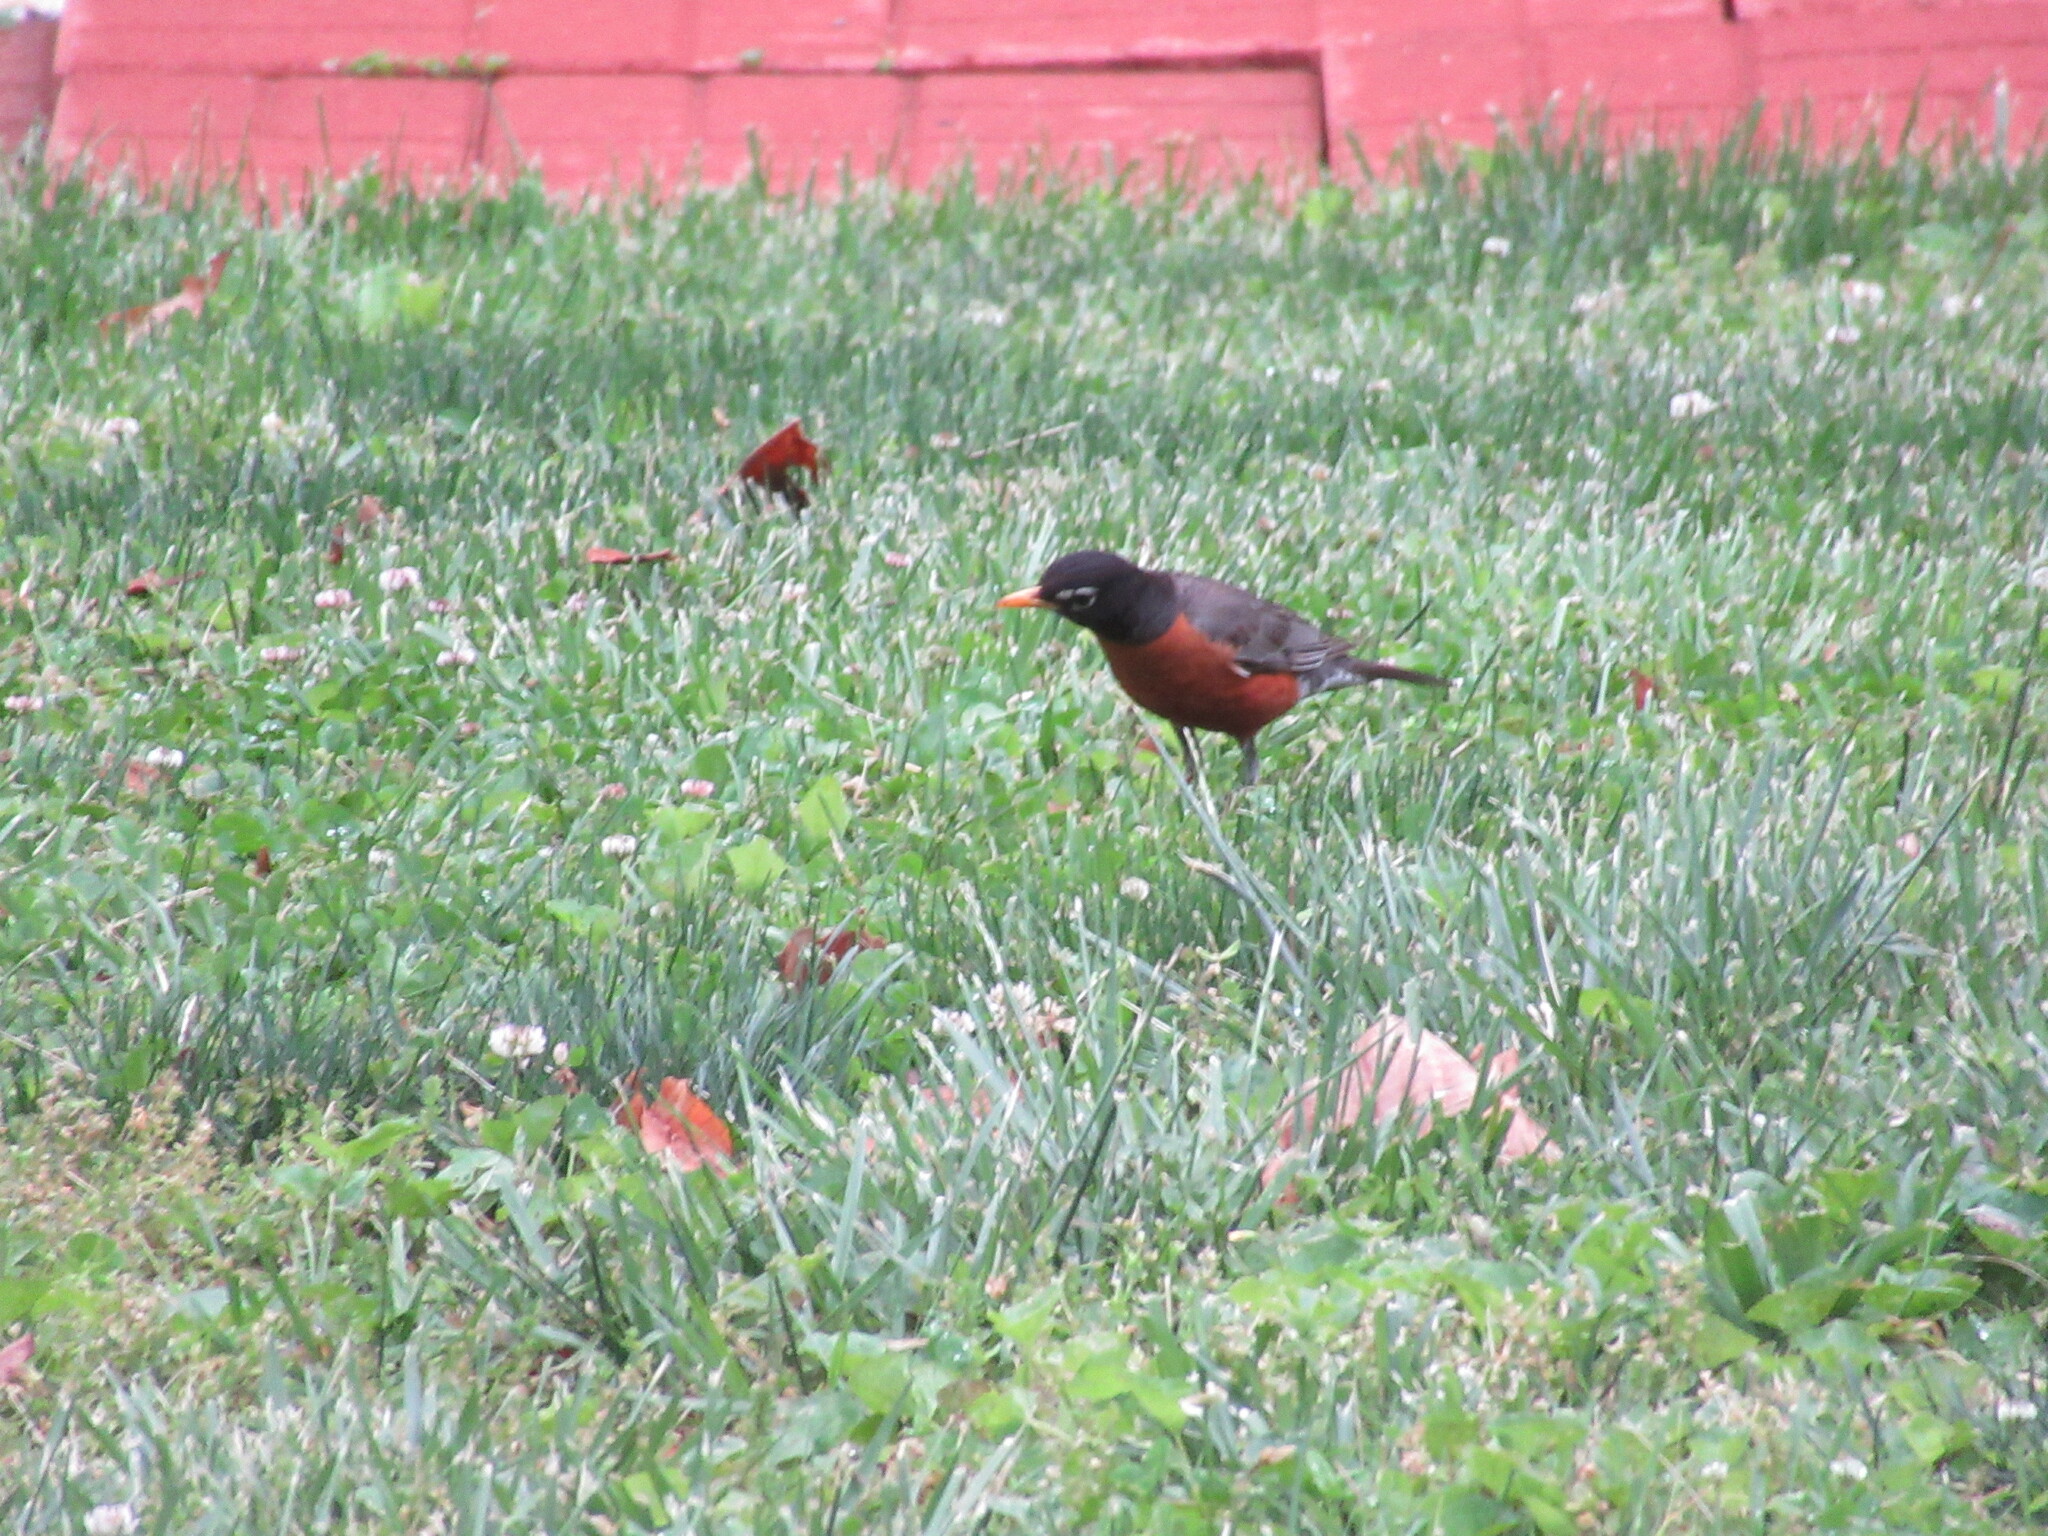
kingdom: Animalia
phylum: Chordata
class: Aves
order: Passeriformes
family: Turdidae
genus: Turdus
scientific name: Turdus migratorius
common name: American robin
